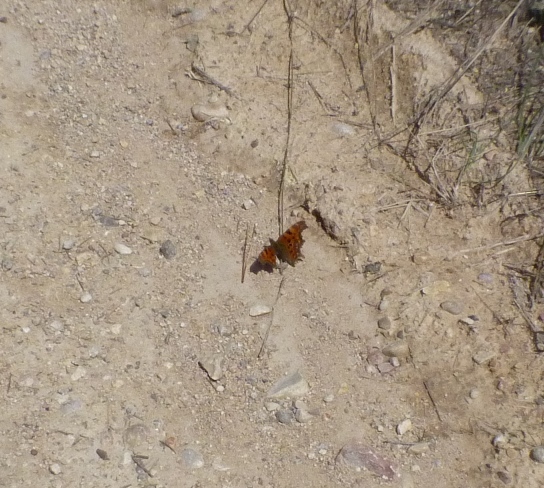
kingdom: Animalia
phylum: Arthropoda
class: Insecta
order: Lepidoptera
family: Nymphalidae
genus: Polygonia
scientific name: Polygonia c-album
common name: Comma
